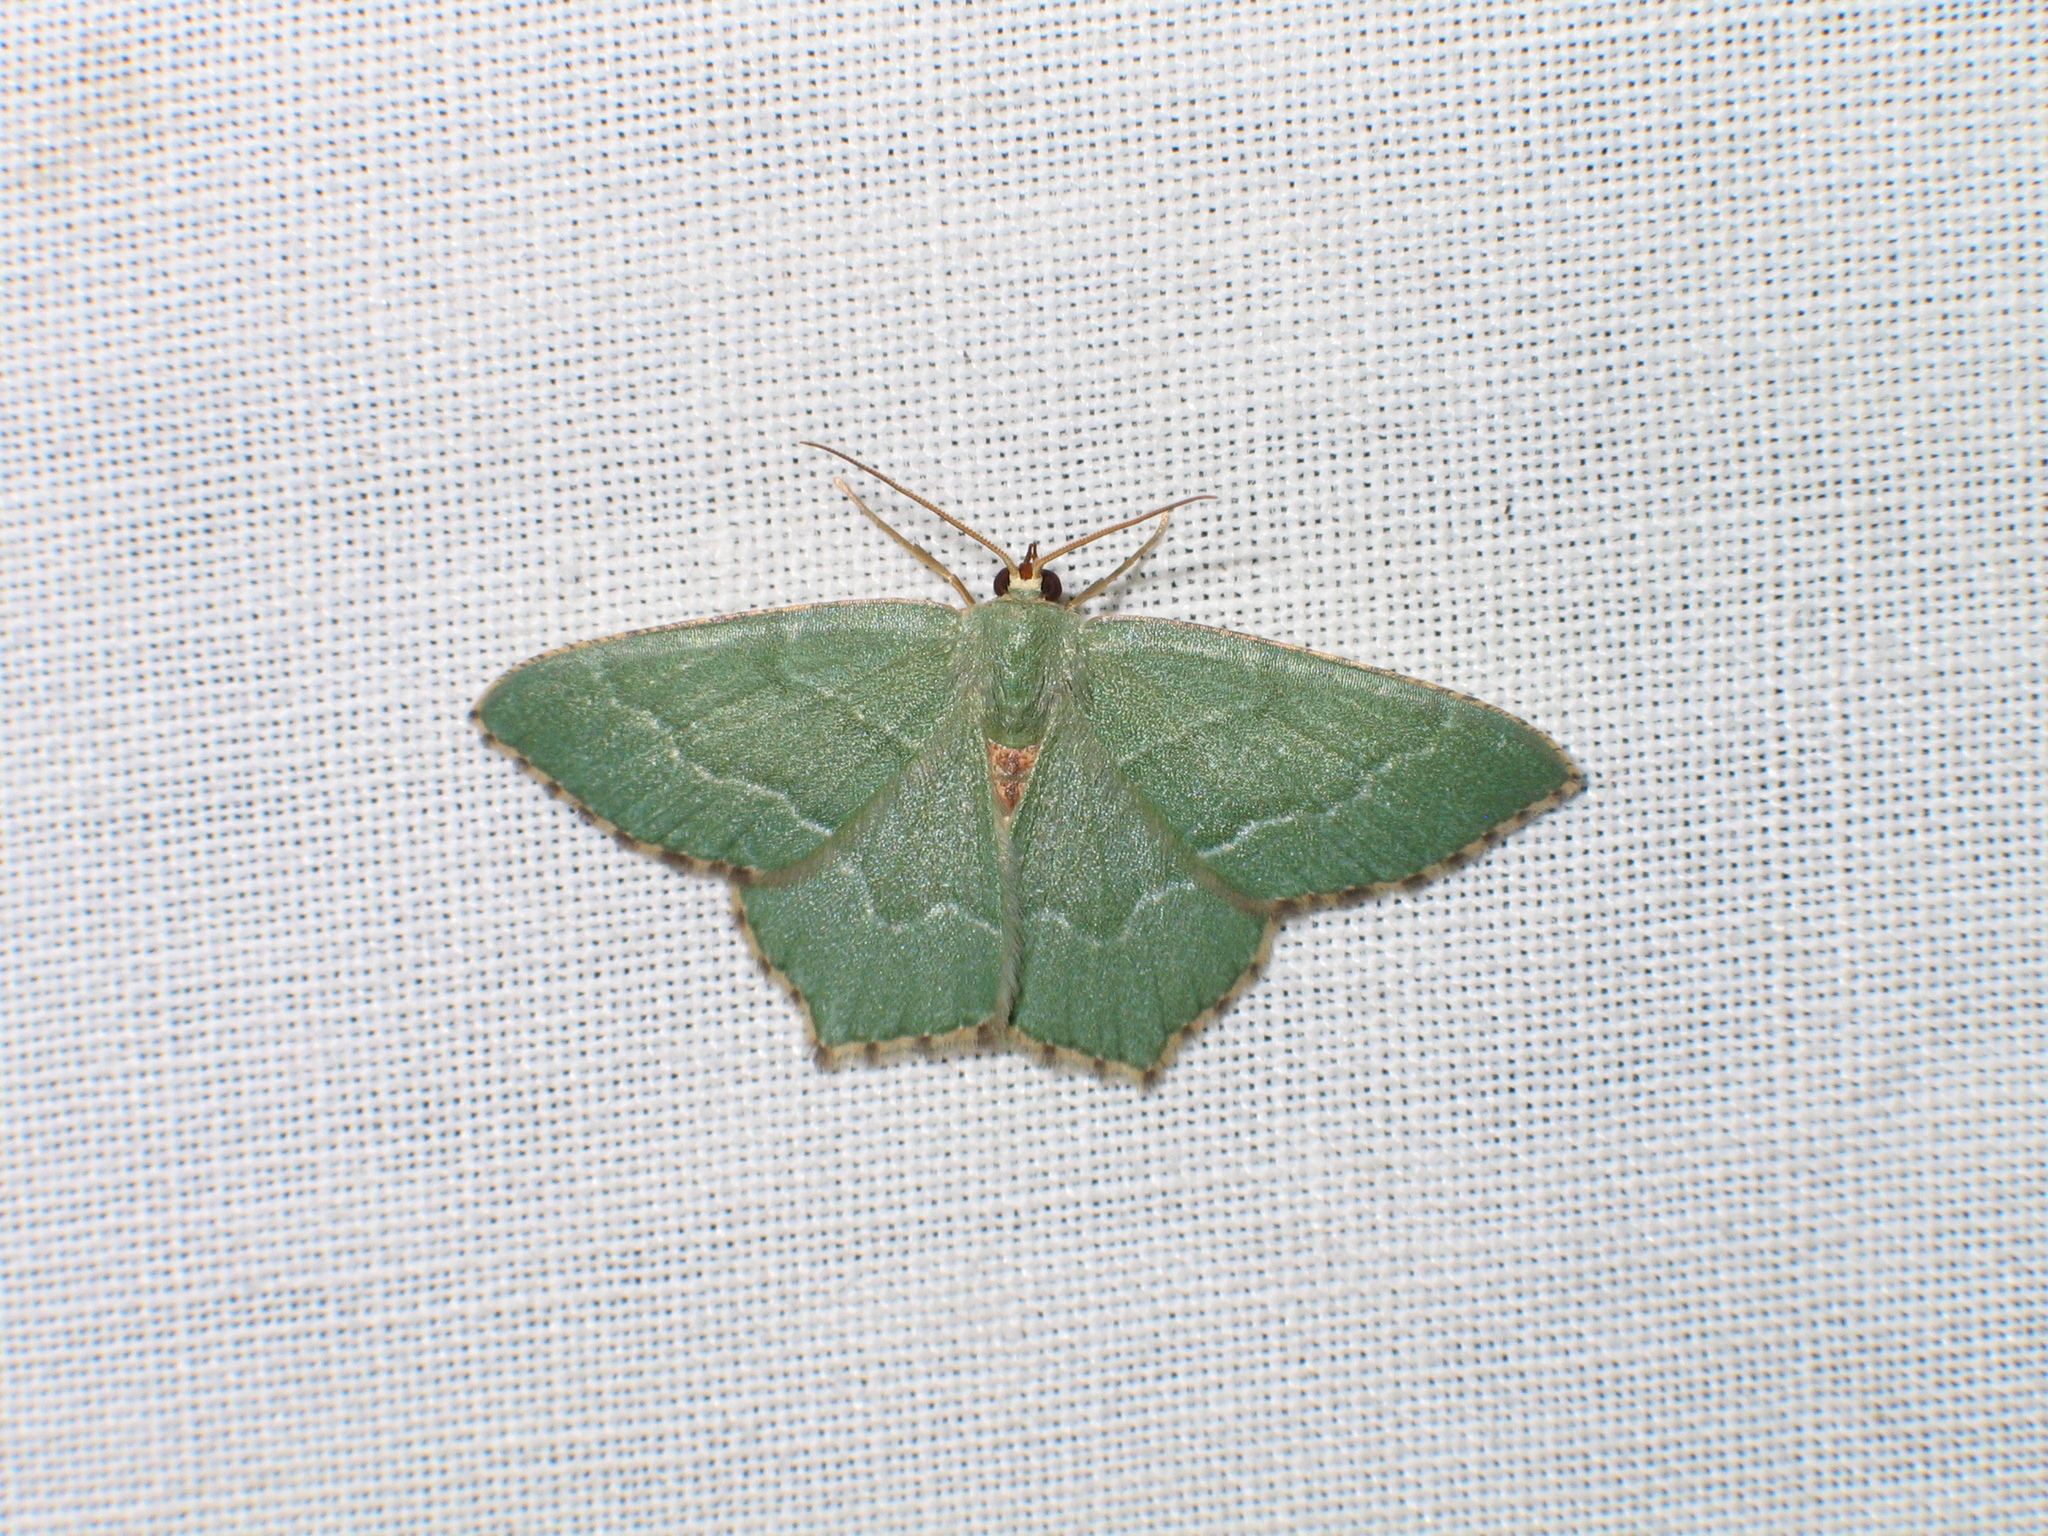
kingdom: Animalia
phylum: Arthropoda
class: Insecta
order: Lepidoptera
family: Geometridae
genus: Hemithea
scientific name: Hemithea aestivaria
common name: Common emerald
